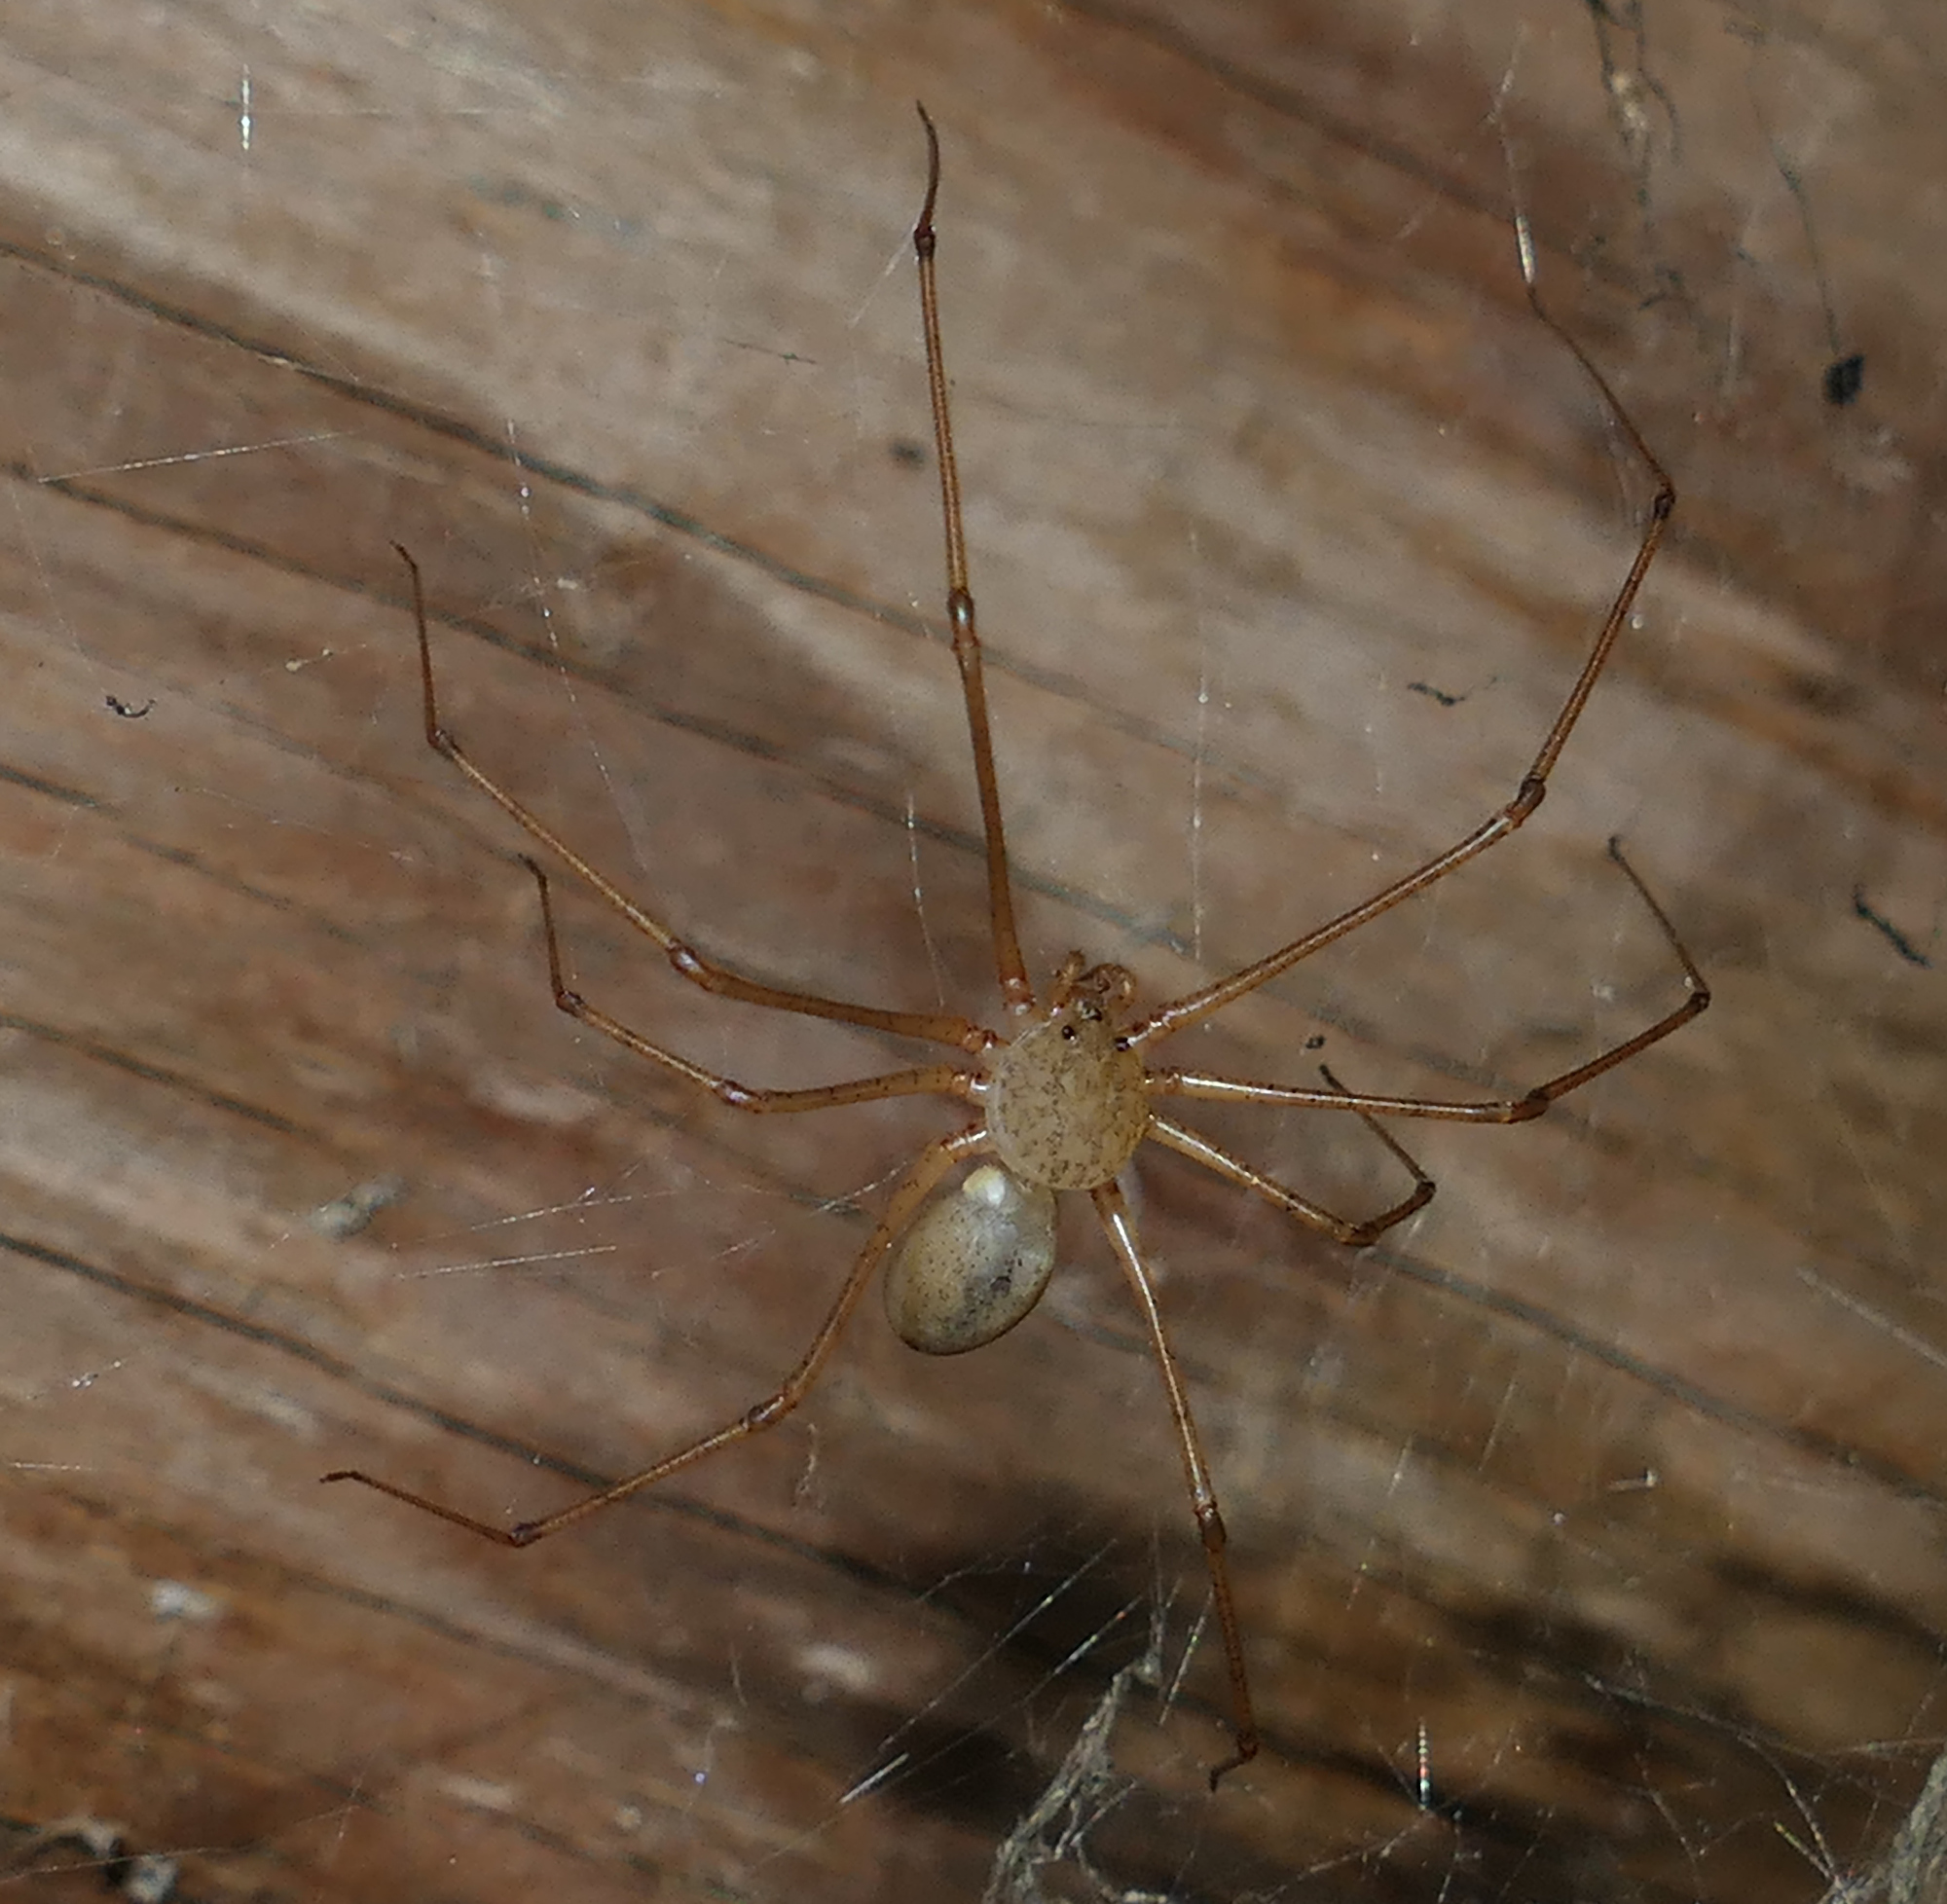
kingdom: Animalia
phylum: Arthropoda
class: Arachnida
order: Araneae
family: Scytodidae
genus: Scytodes
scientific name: Scytodes atlacoya
